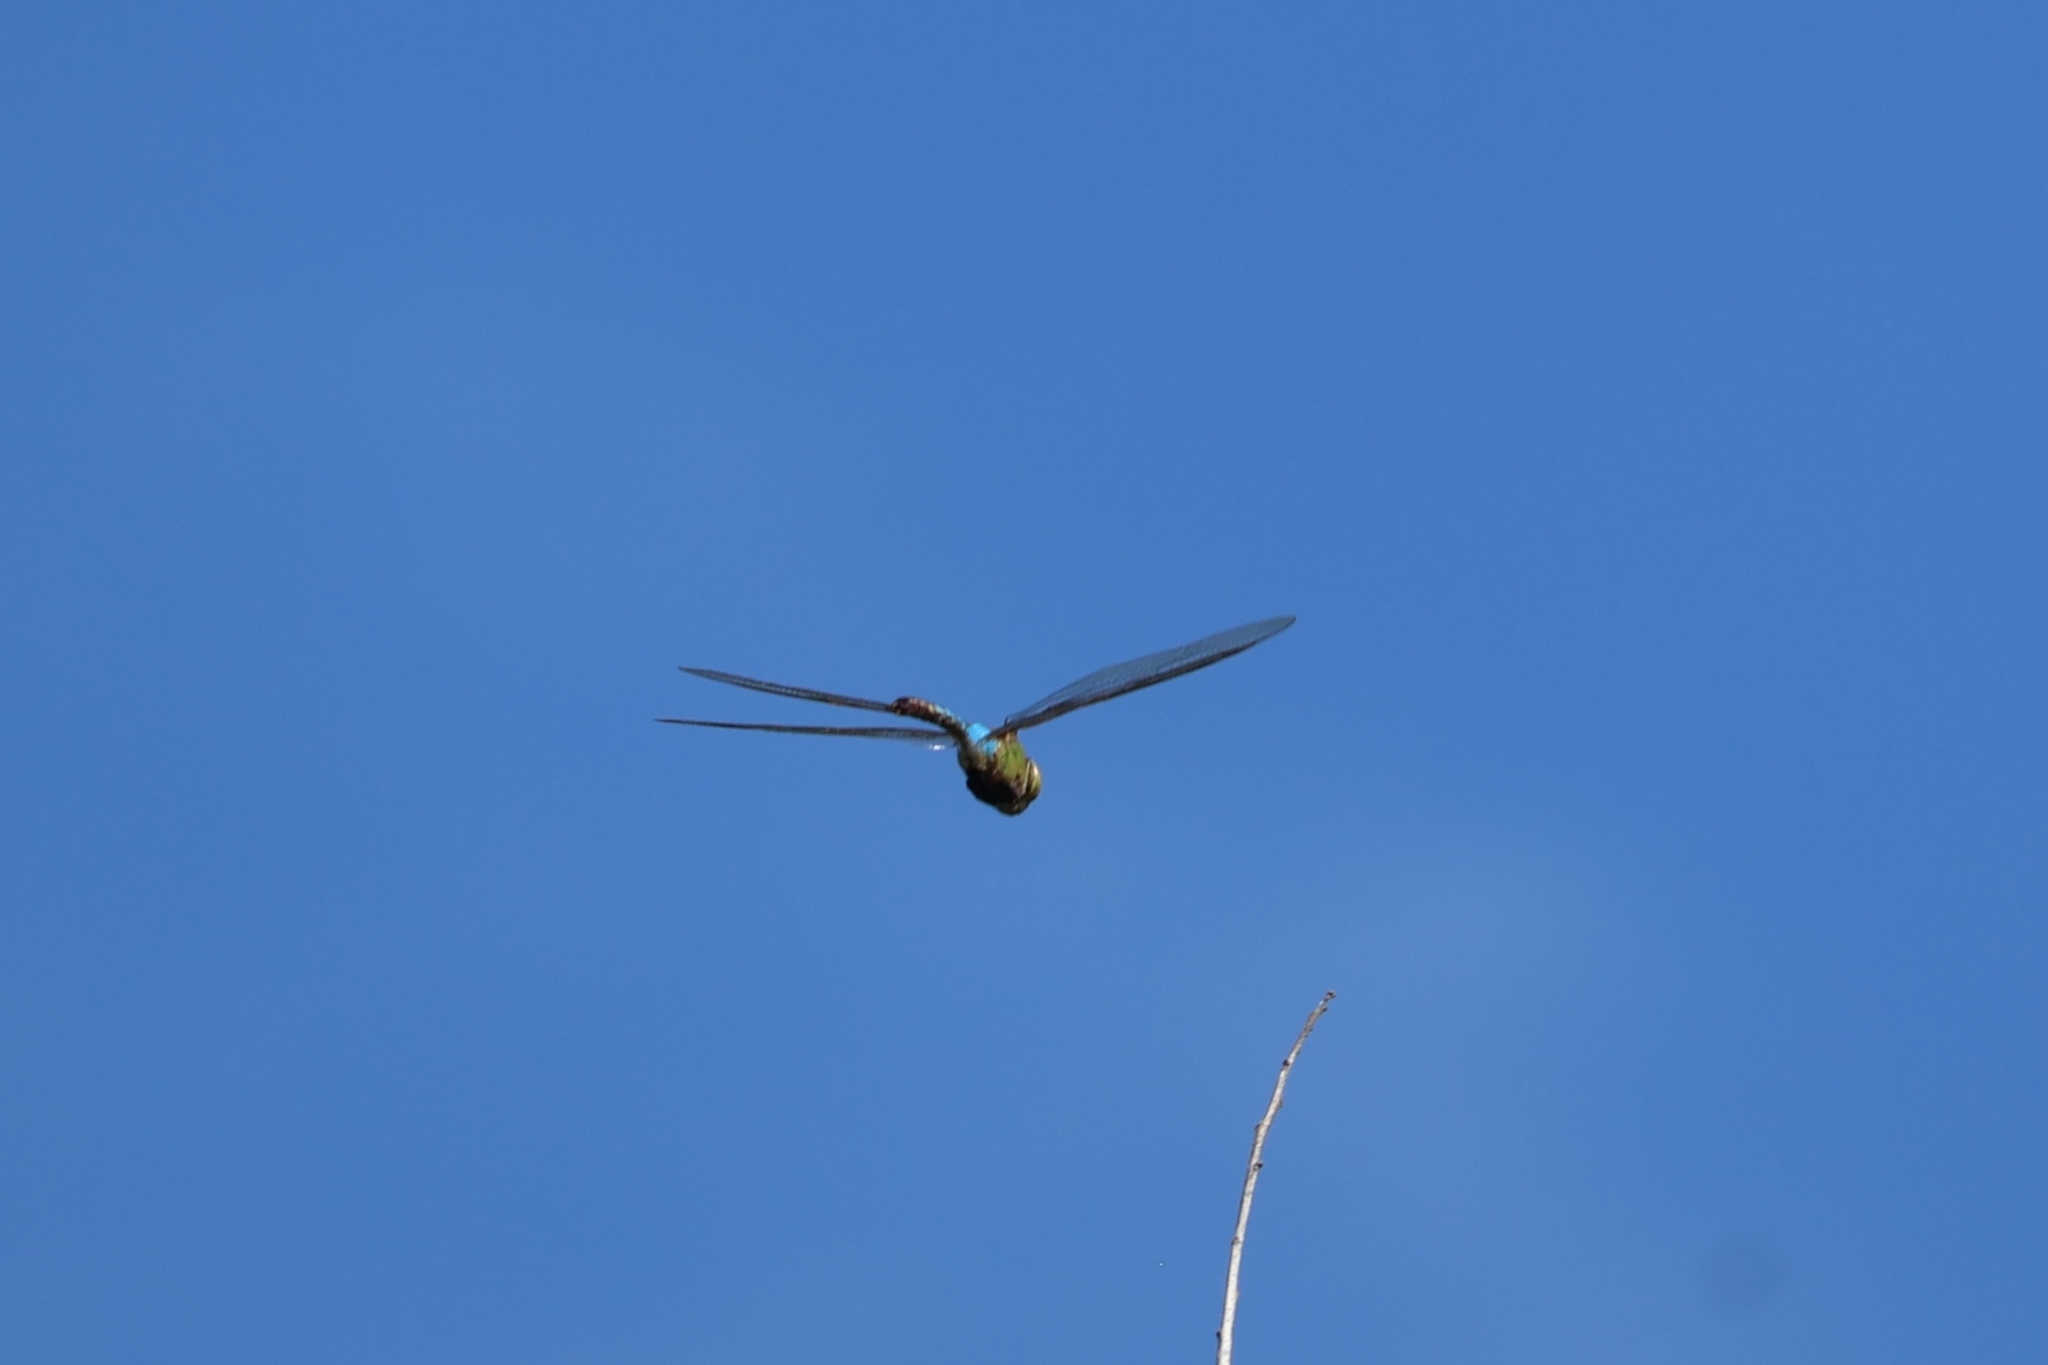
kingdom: Animalia
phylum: Arthropoda
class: Insecta
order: Odonata
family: Aeshnidae
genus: Anax
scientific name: Anax junius
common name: Common green darner
